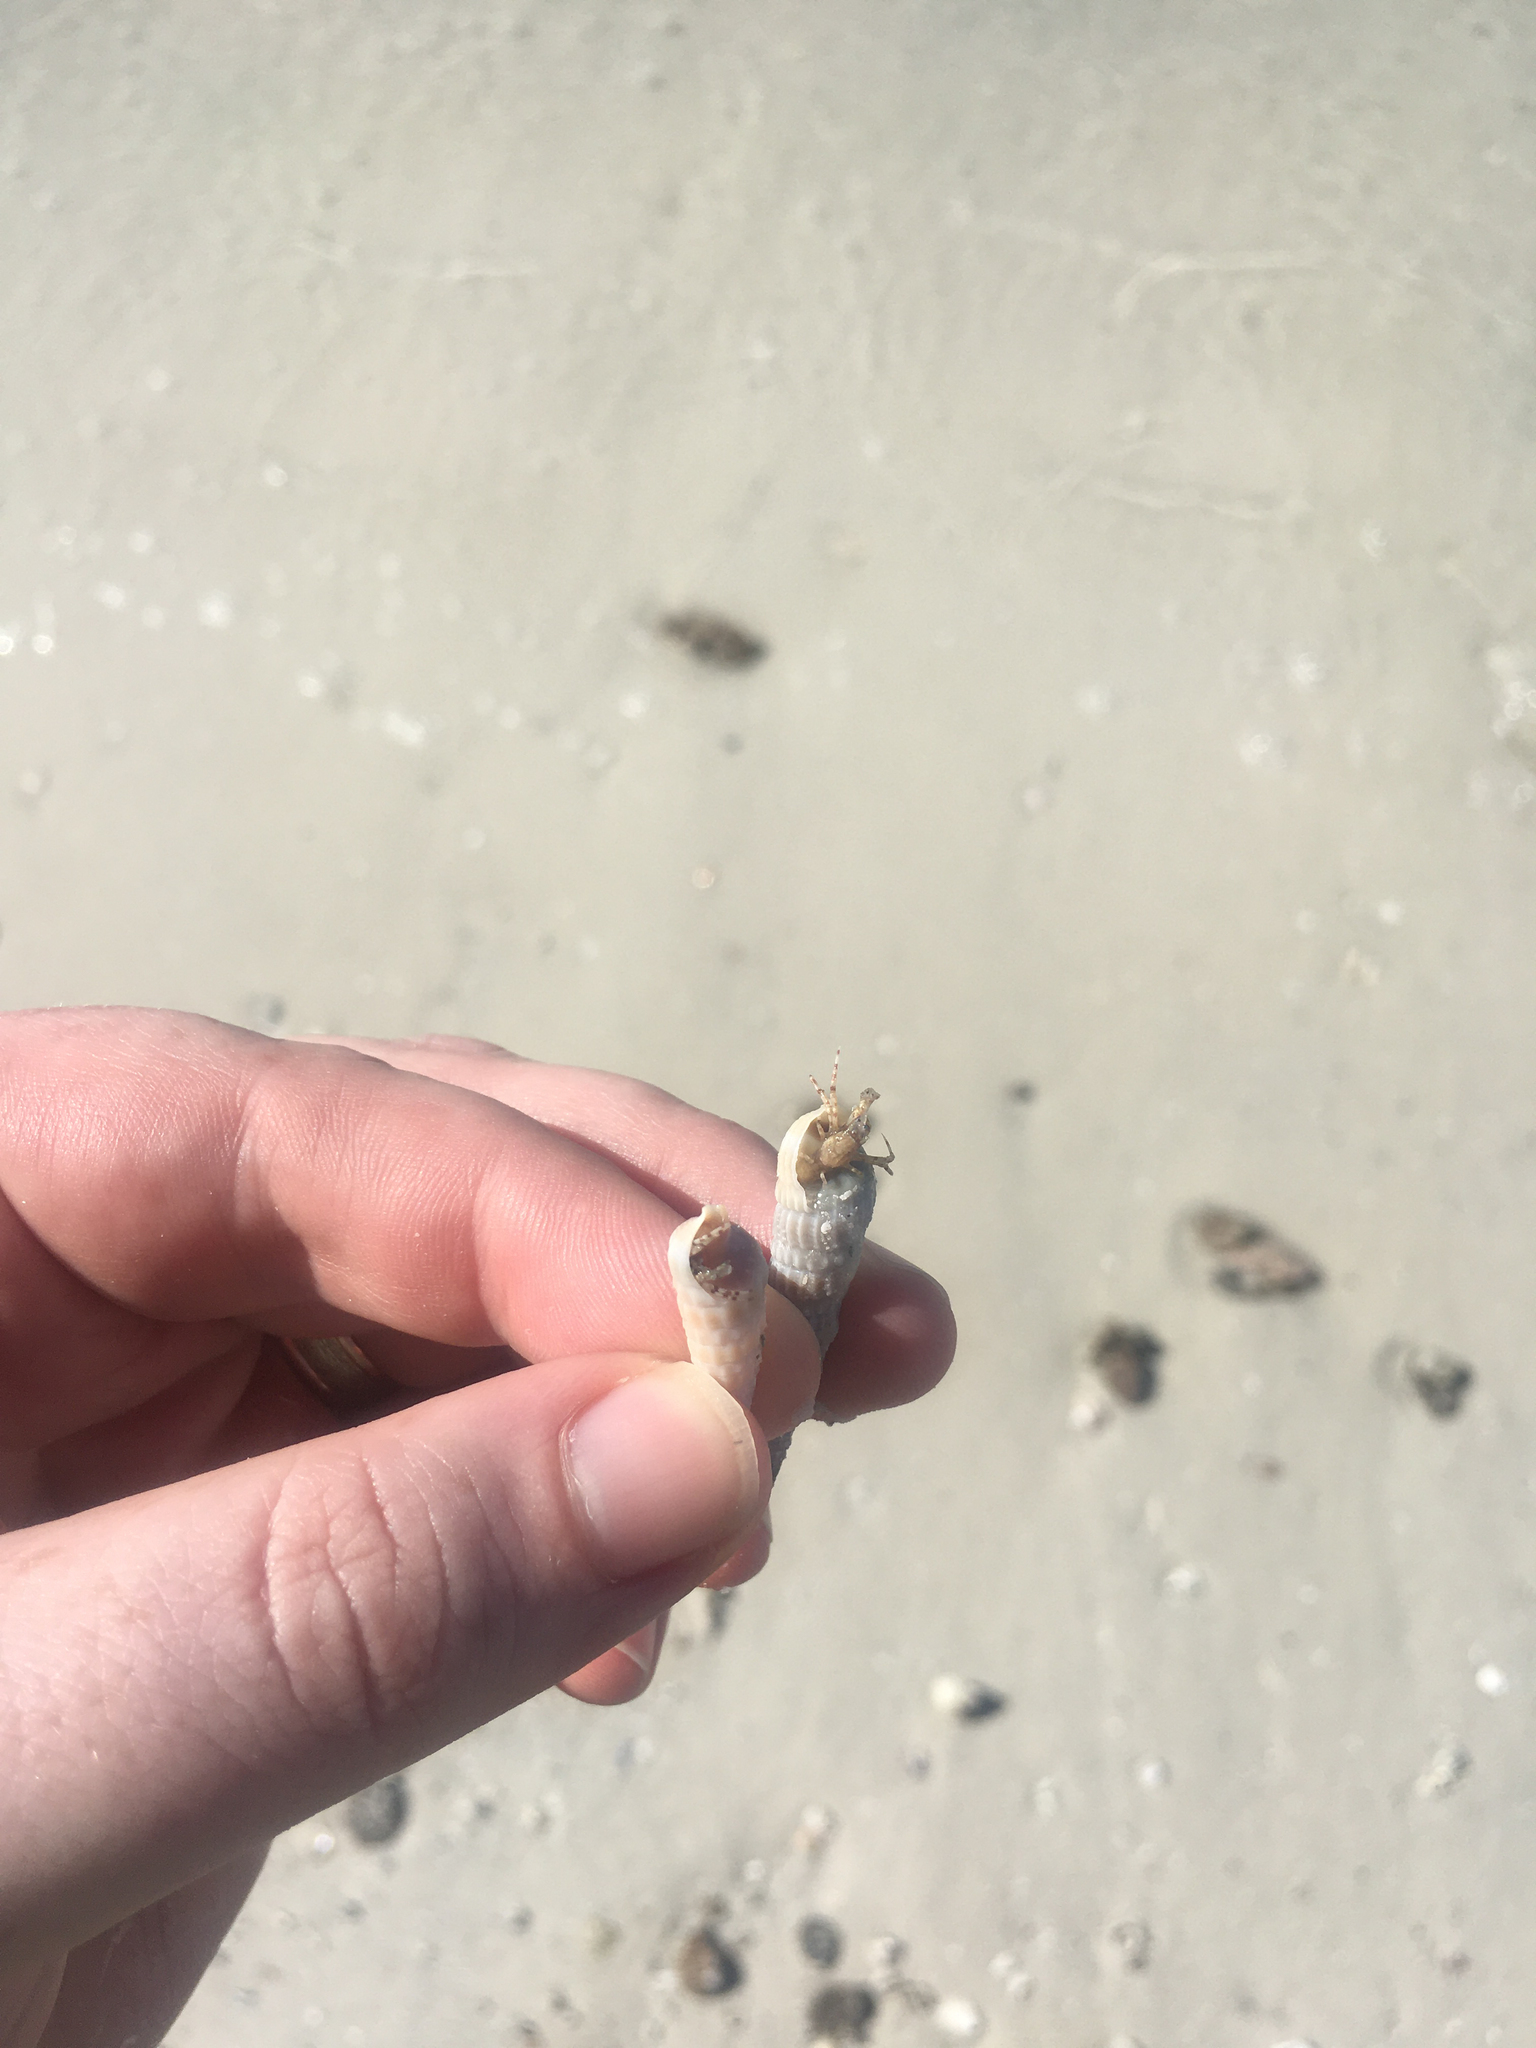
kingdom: Animalia
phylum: Arthropoda
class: Malacostraca
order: Decapoda
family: Diogenidae
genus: Areopaguristes
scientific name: Areopaguristes hummi
